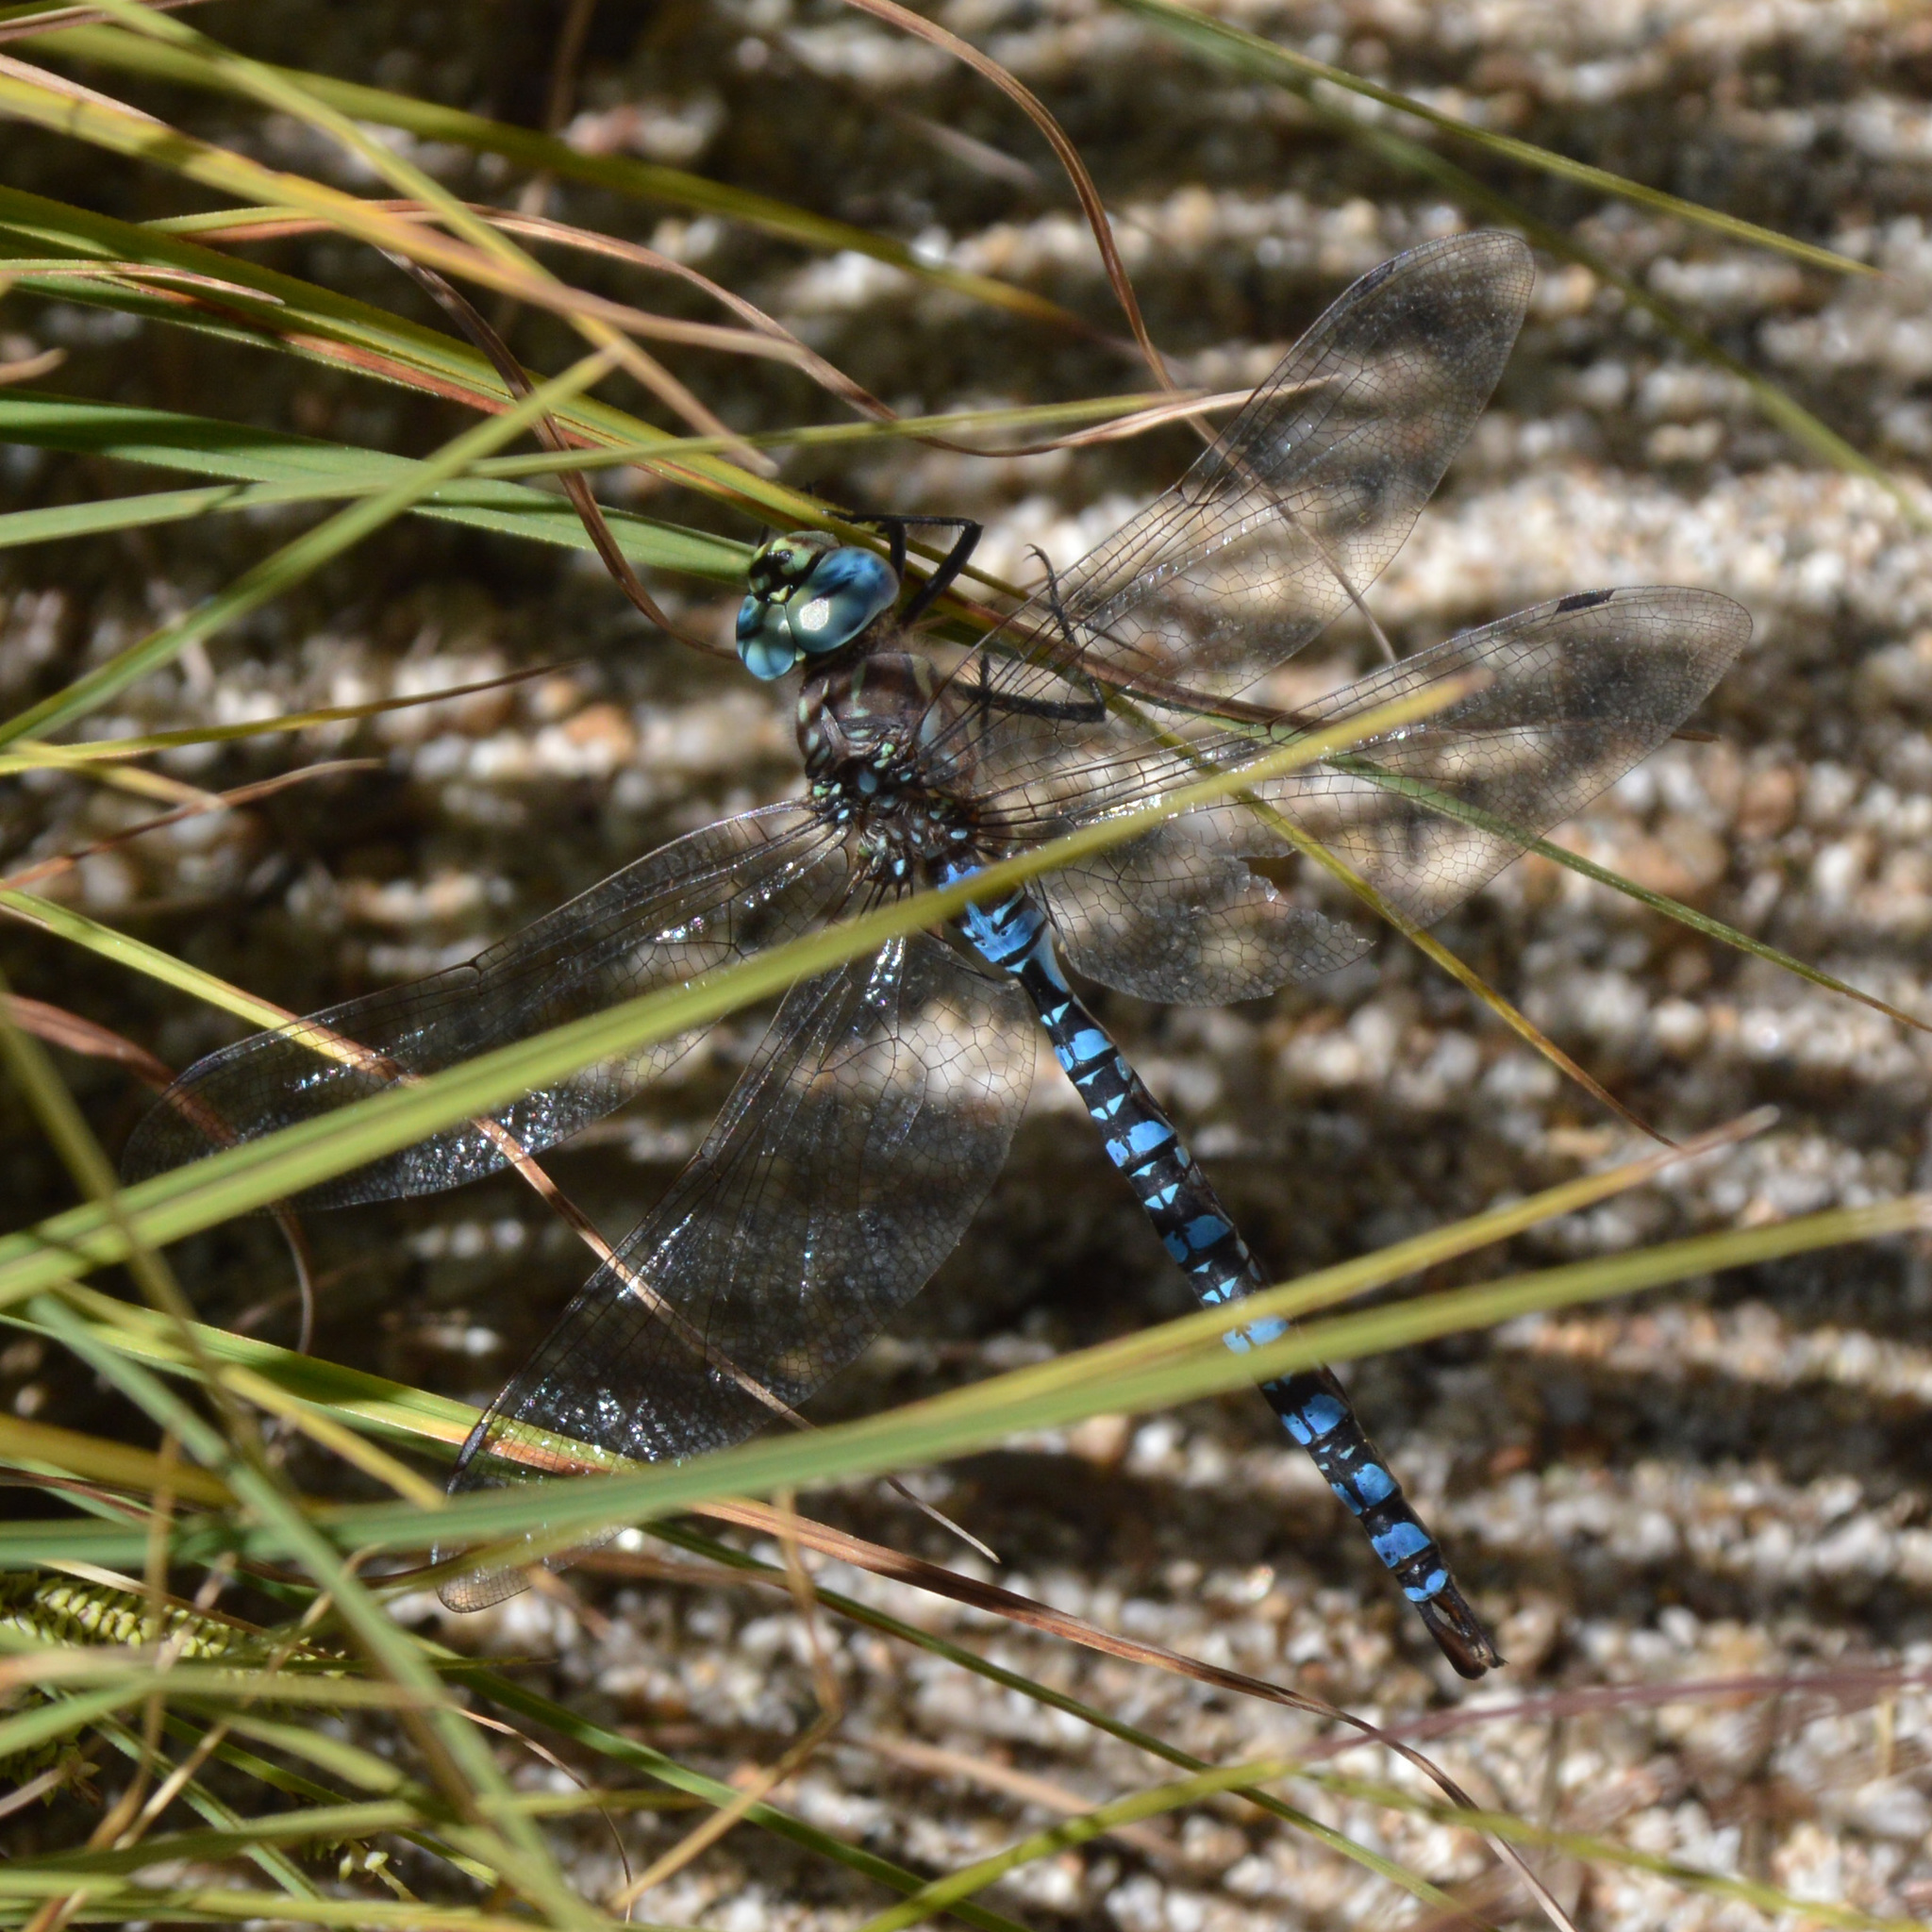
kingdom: Animalia
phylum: Arthropoda
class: Insecta
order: Odonata
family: Aeshnidae
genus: Aeshna
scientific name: Aeshna palmata
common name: Paddle-tailed darner
